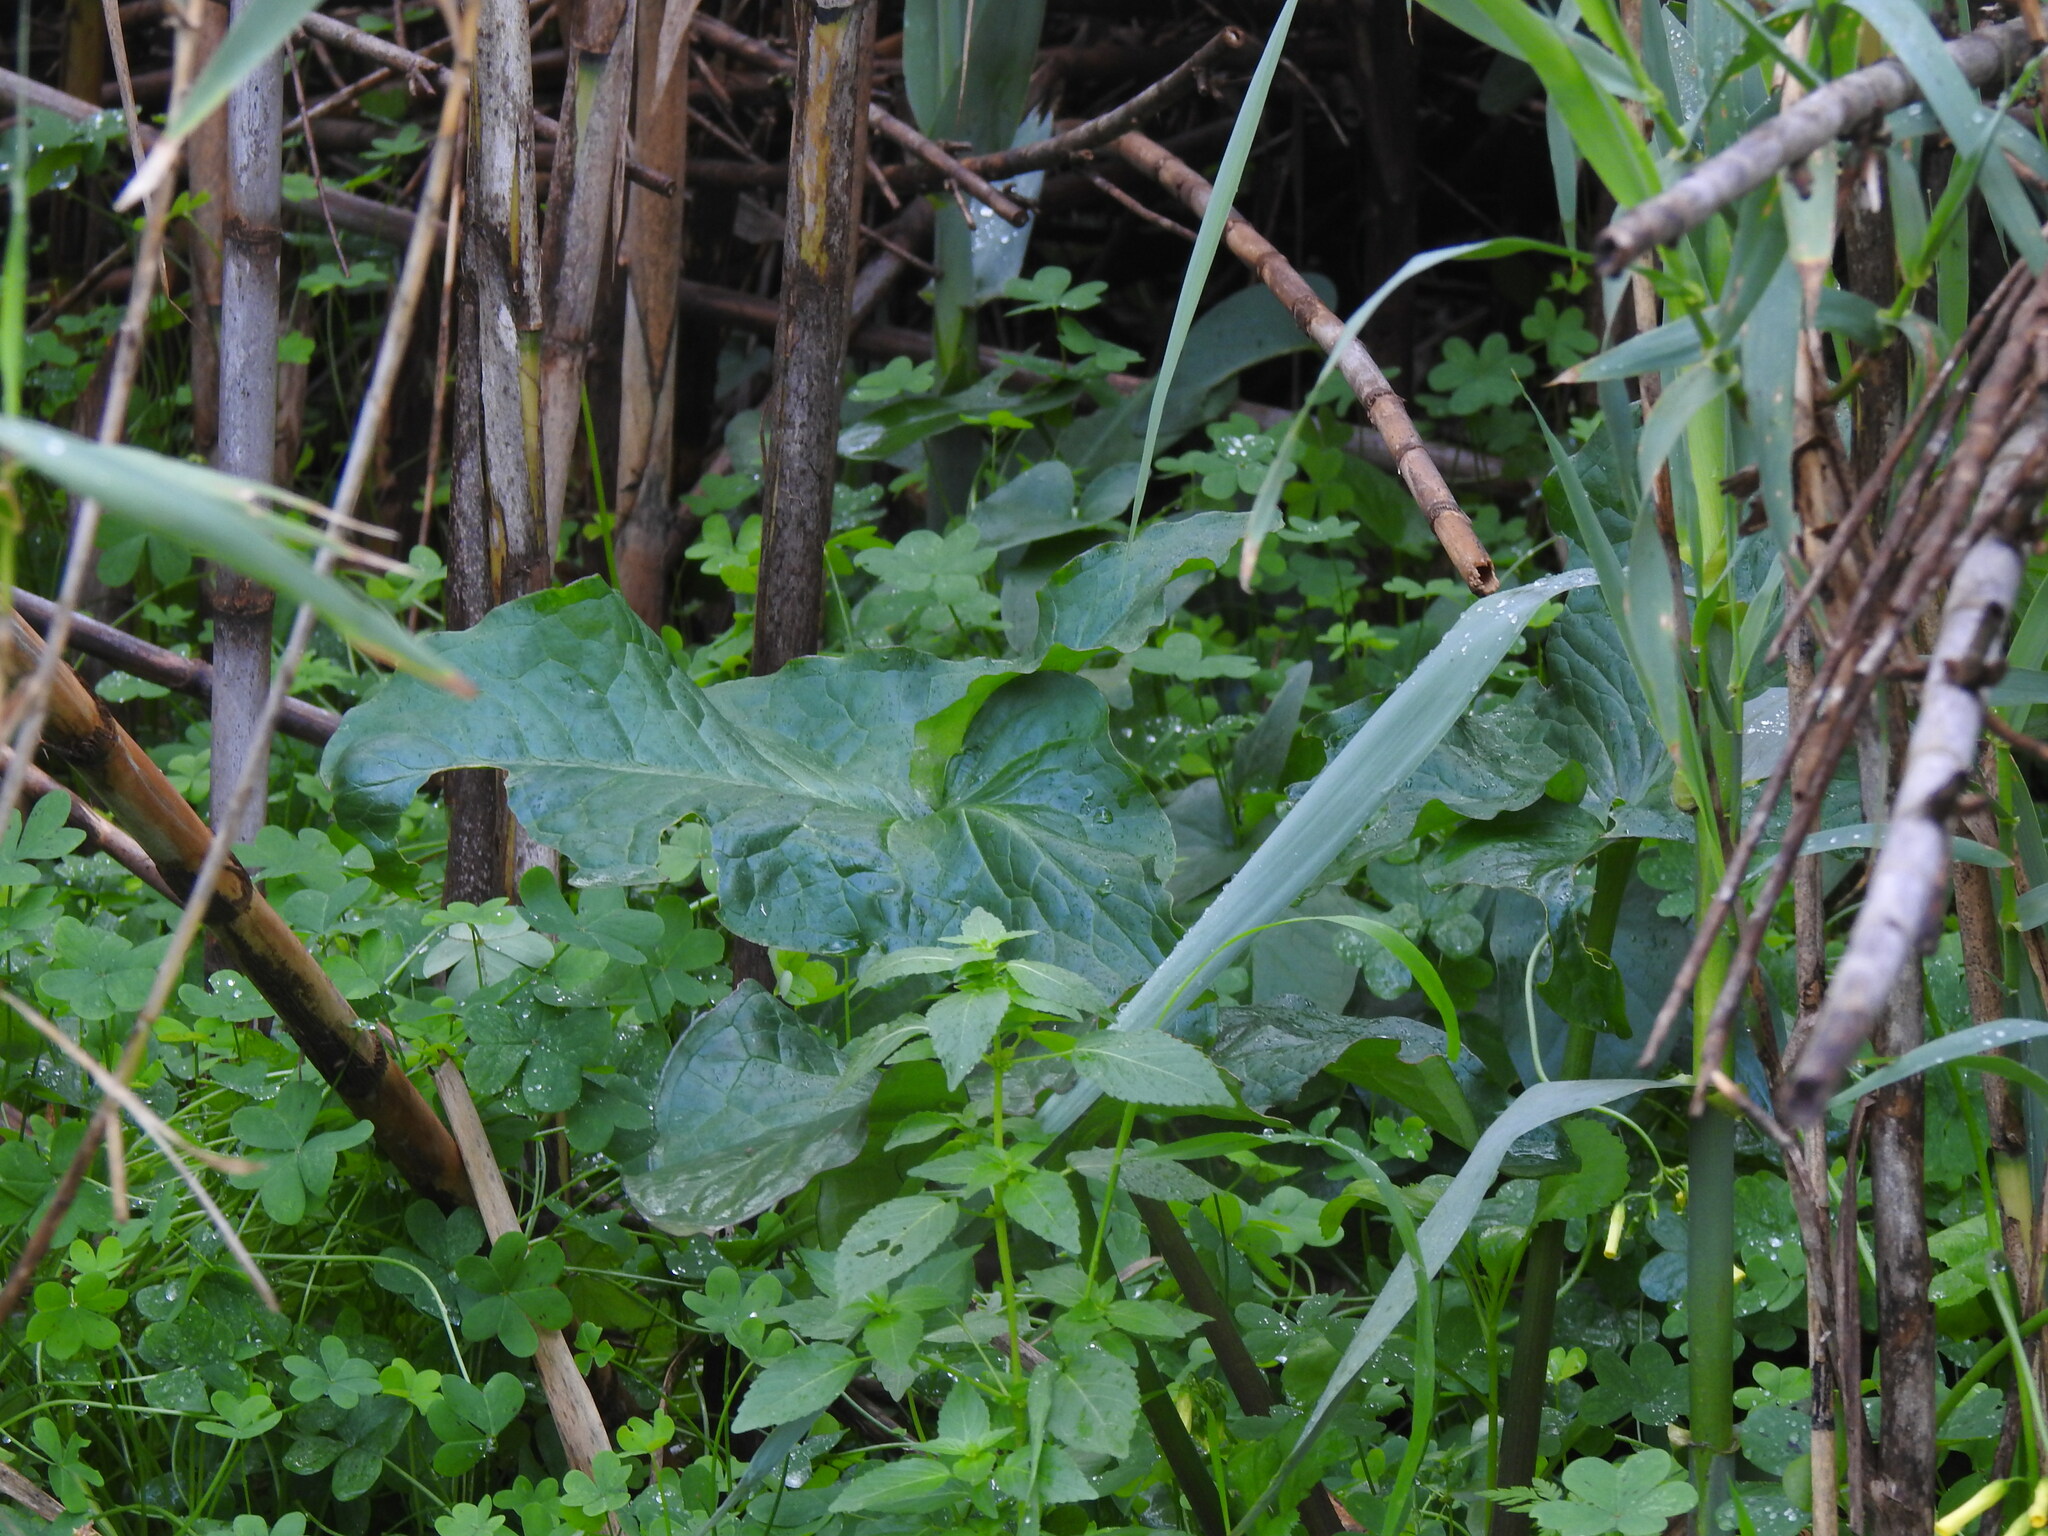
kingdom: Plantae
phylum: Tracheophyta
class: Liliopsida
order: Alismatales
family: Araceae
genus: Arum
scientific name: Arum italicum
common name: Italian lords-and-ladies
